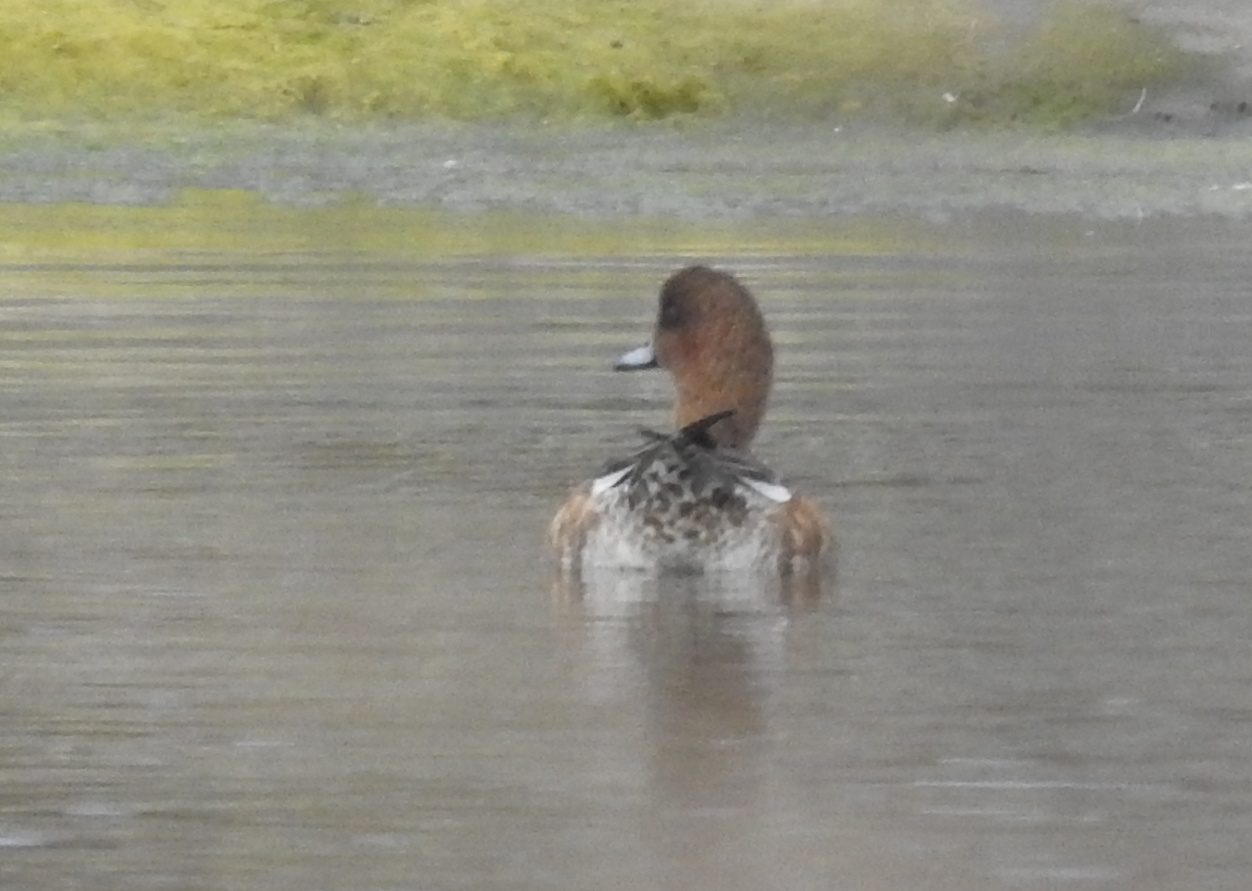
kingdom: Animalia
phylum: Chordata
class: Aves
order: Anseriformes
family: Anatidae
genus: Mareca
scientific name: Mareca penelope
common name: Eurasian wigeon
